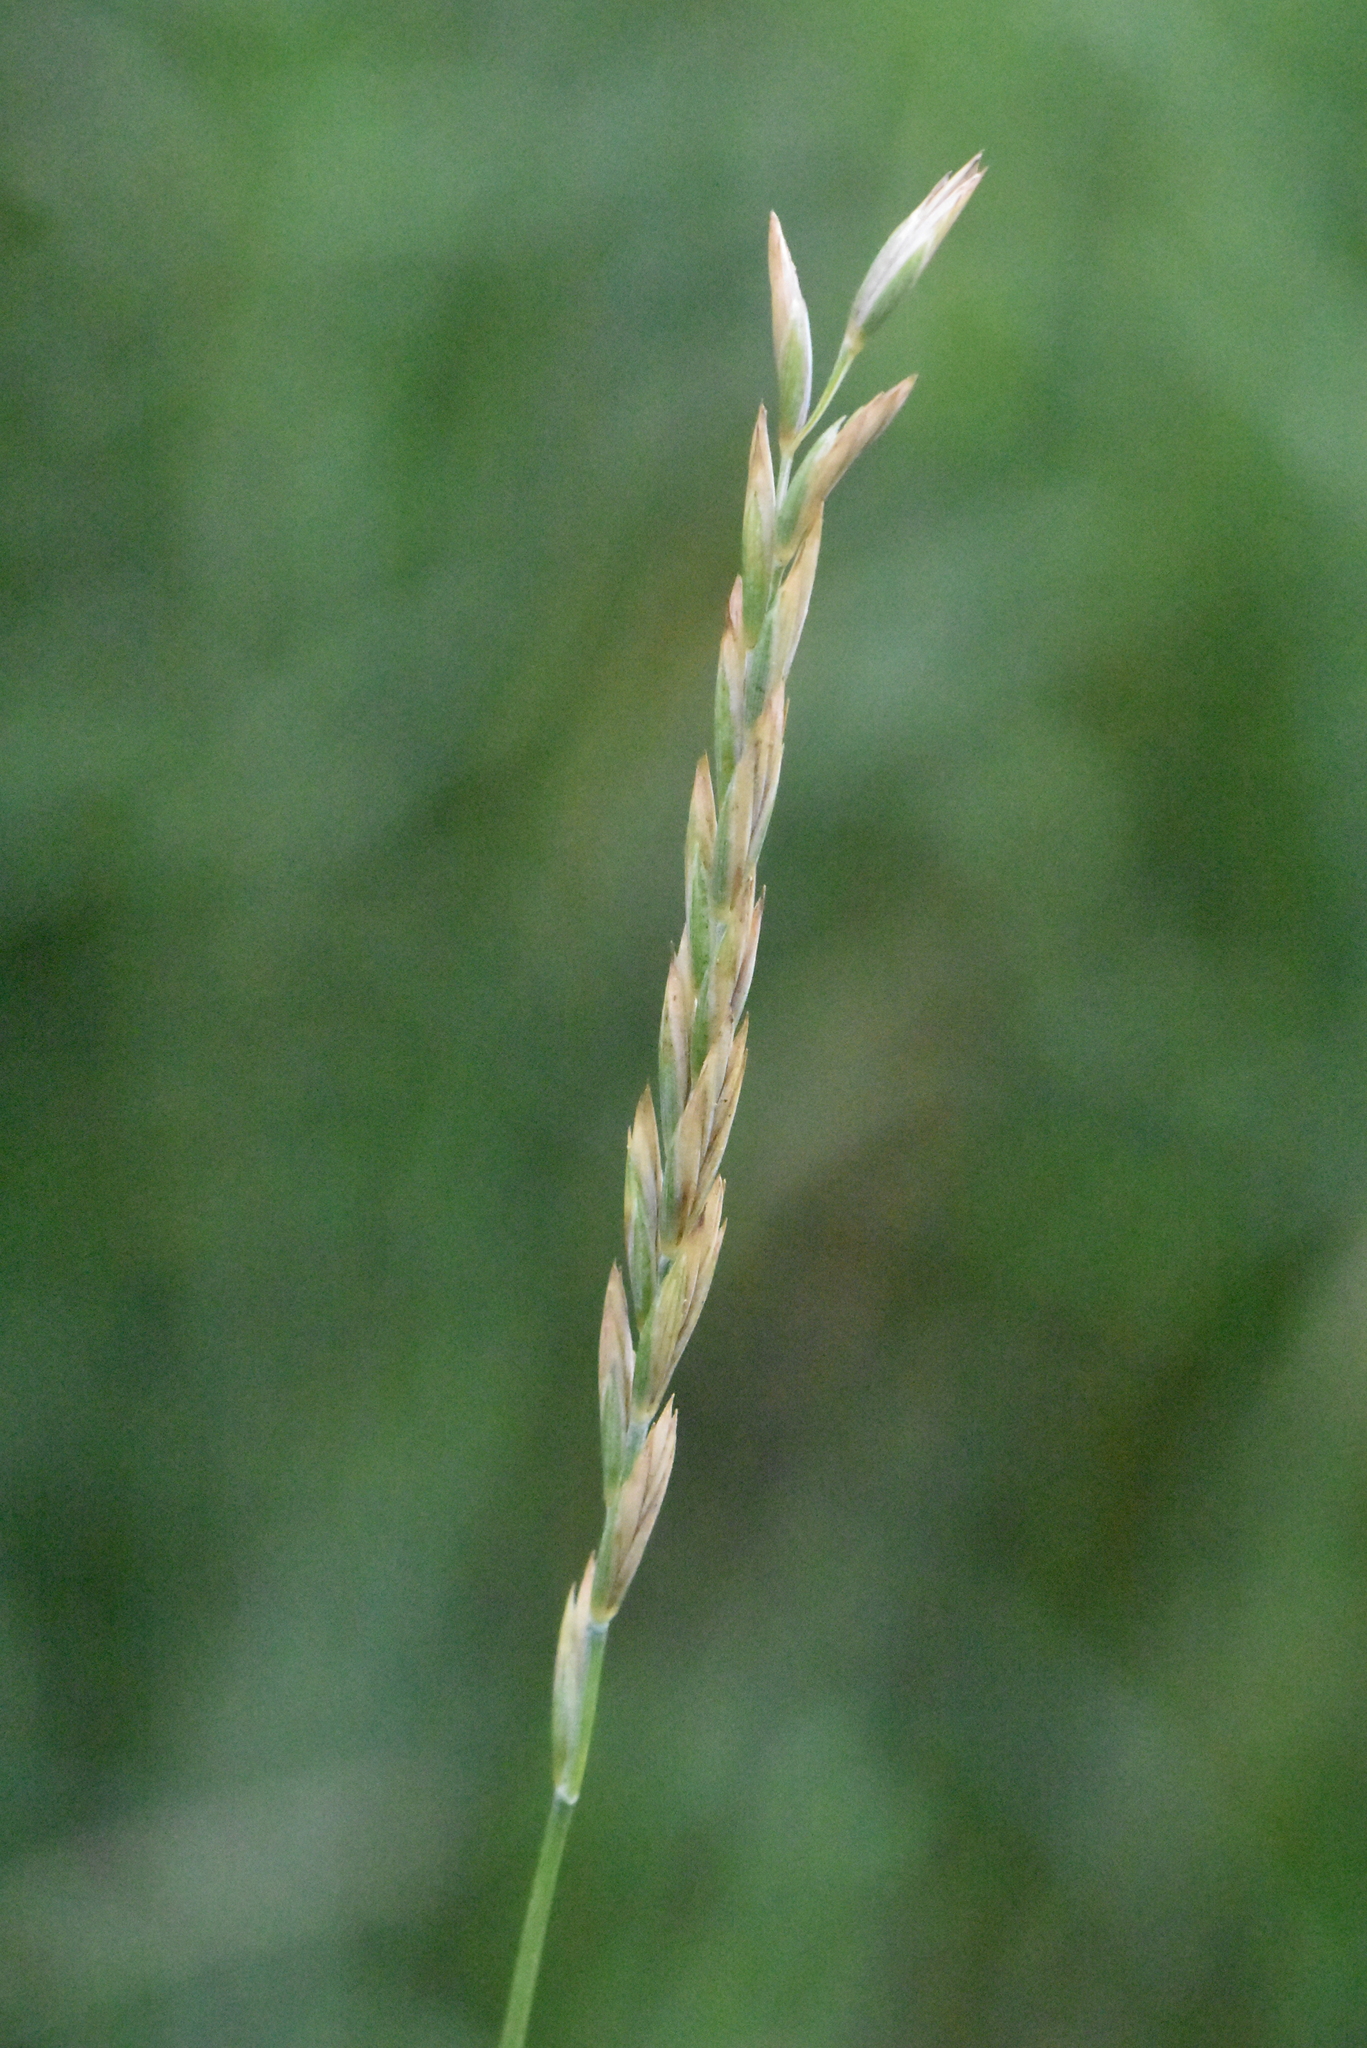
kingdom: Plantae
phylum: Tracheophyta
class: Liliopsida
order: Poales
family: Poaceae
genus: Elymus
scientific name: Elymus repens
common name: Quackgrass
